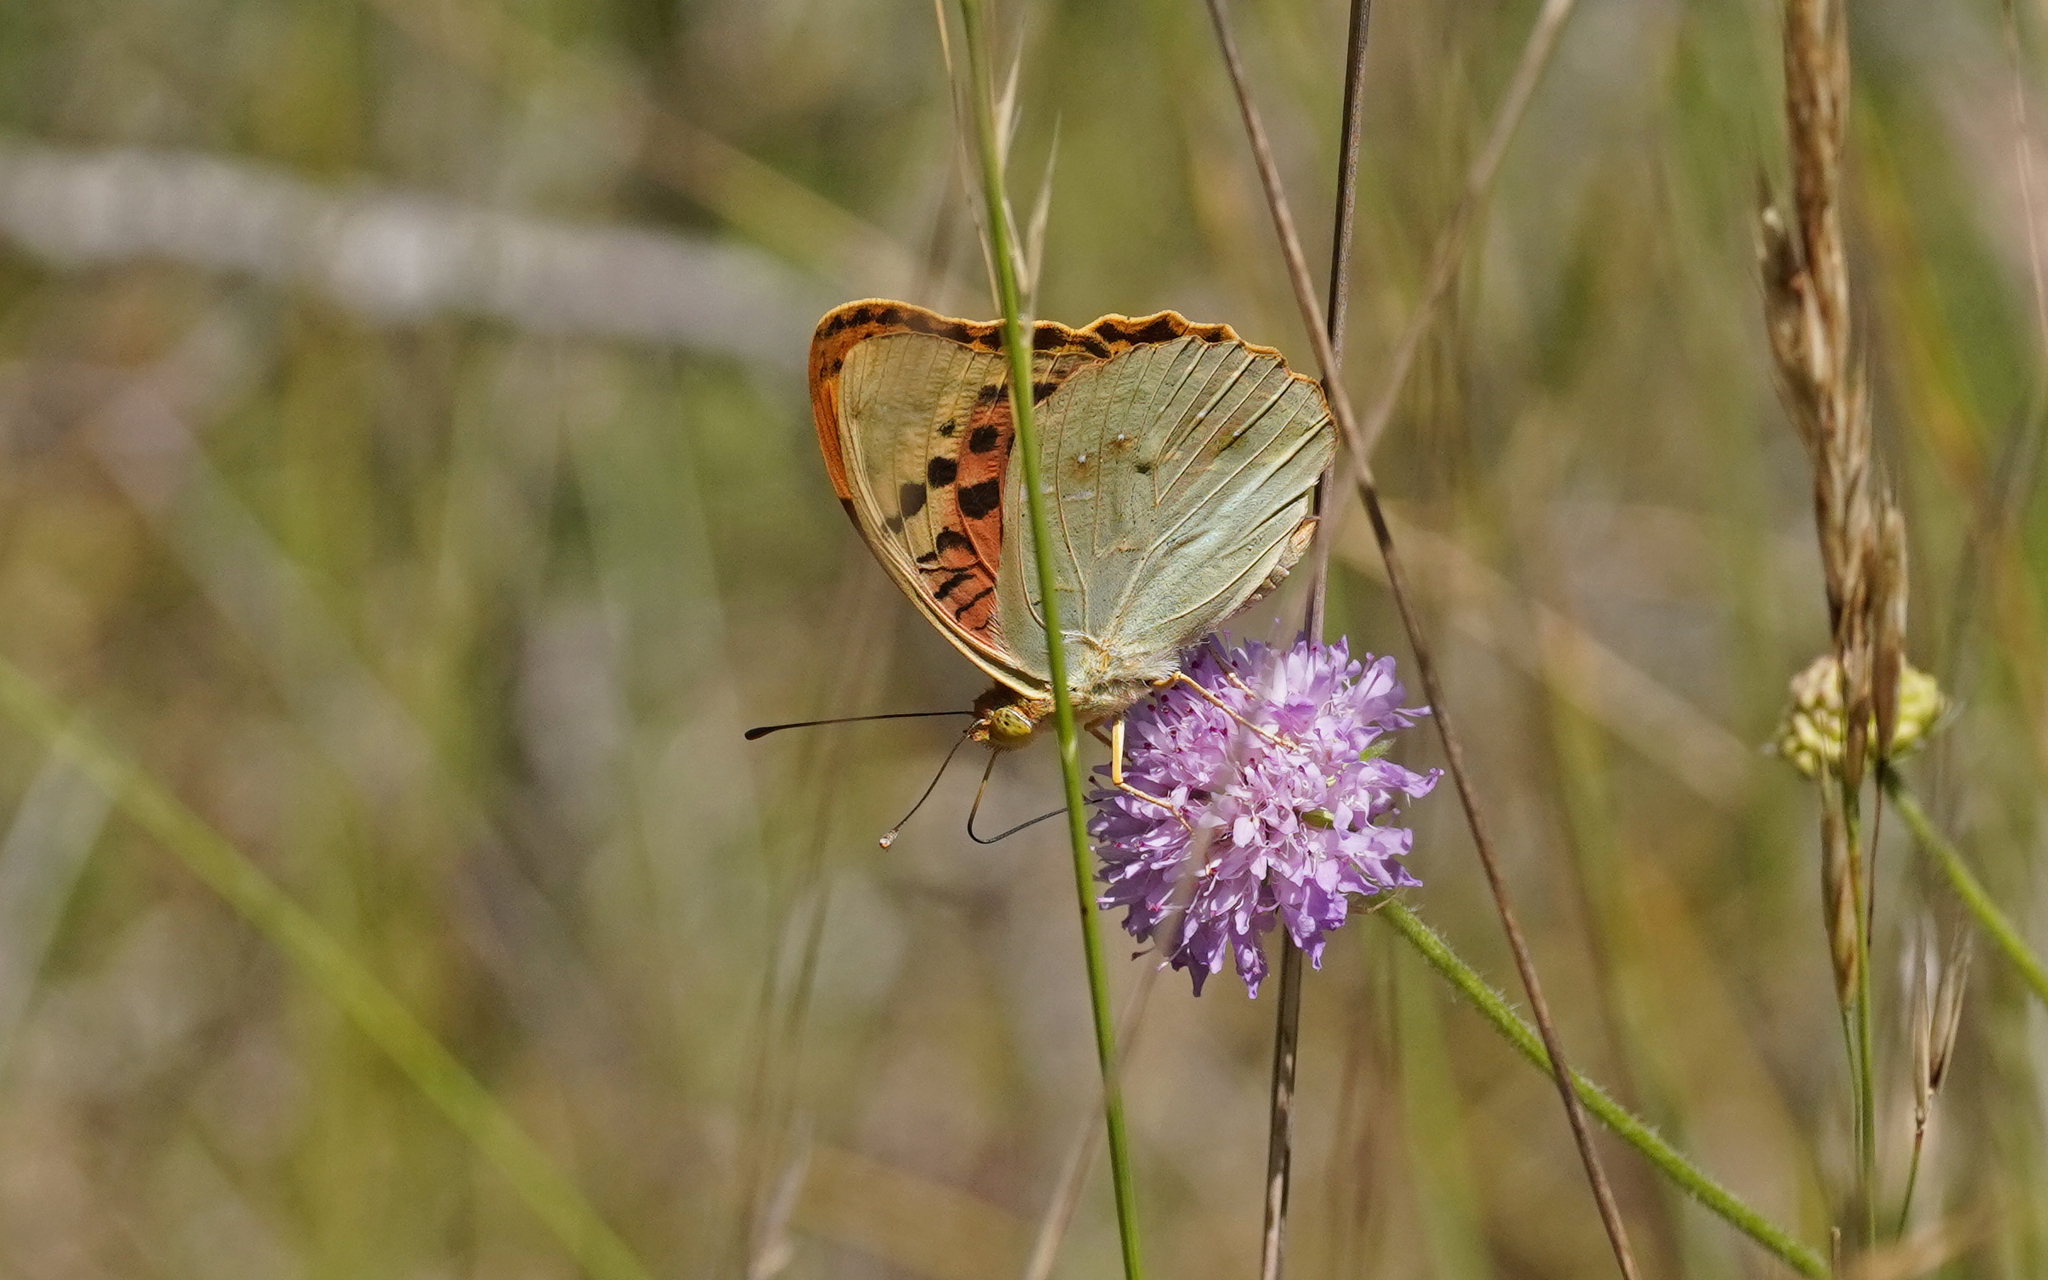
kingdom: Animalia
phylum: Arthropoda
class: Insecta
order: Lepidoptera
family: Nymphalidae
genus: Damora
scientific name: Damora pandora
